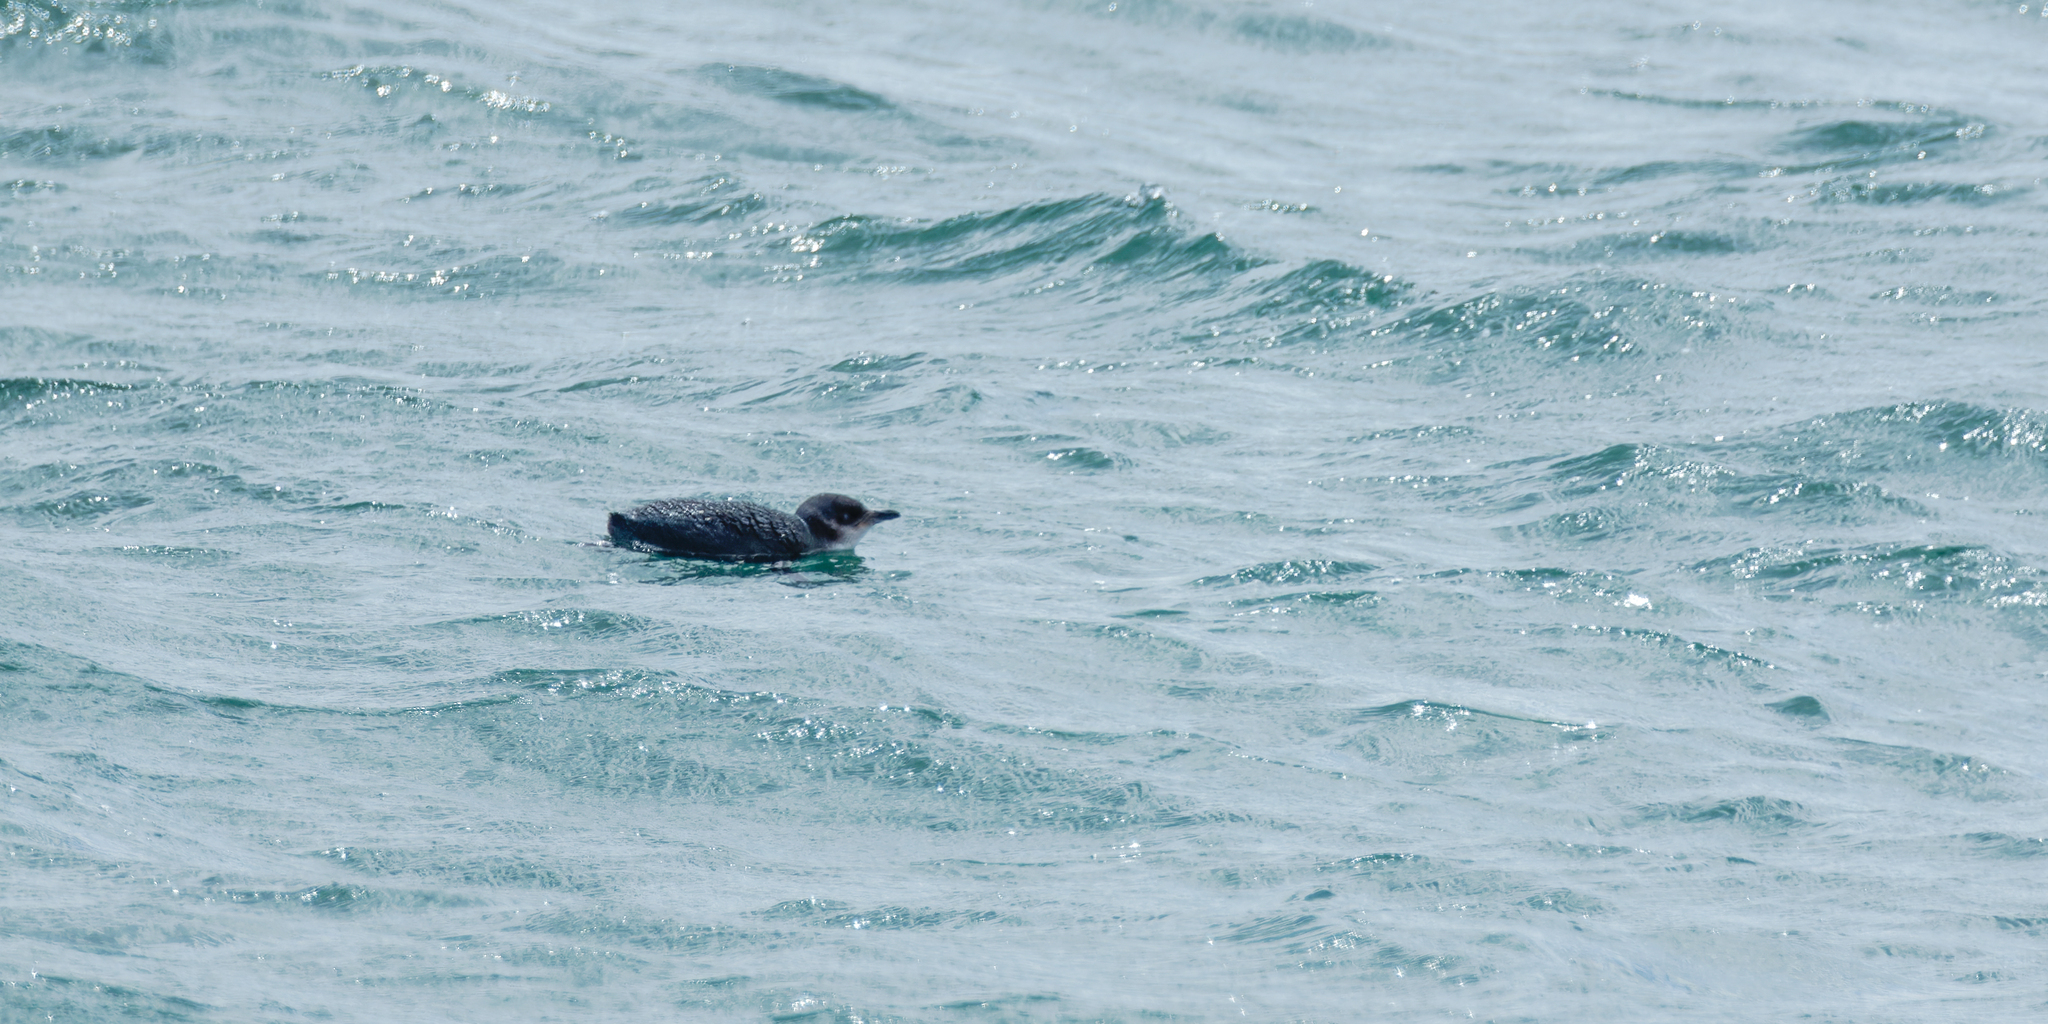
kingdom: Animalia
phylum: Chordata
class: Aves
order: Sphenisciformes
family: Spheniscidae
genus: Eudyptula
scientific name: Eudyptula minor
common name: Little penguin
